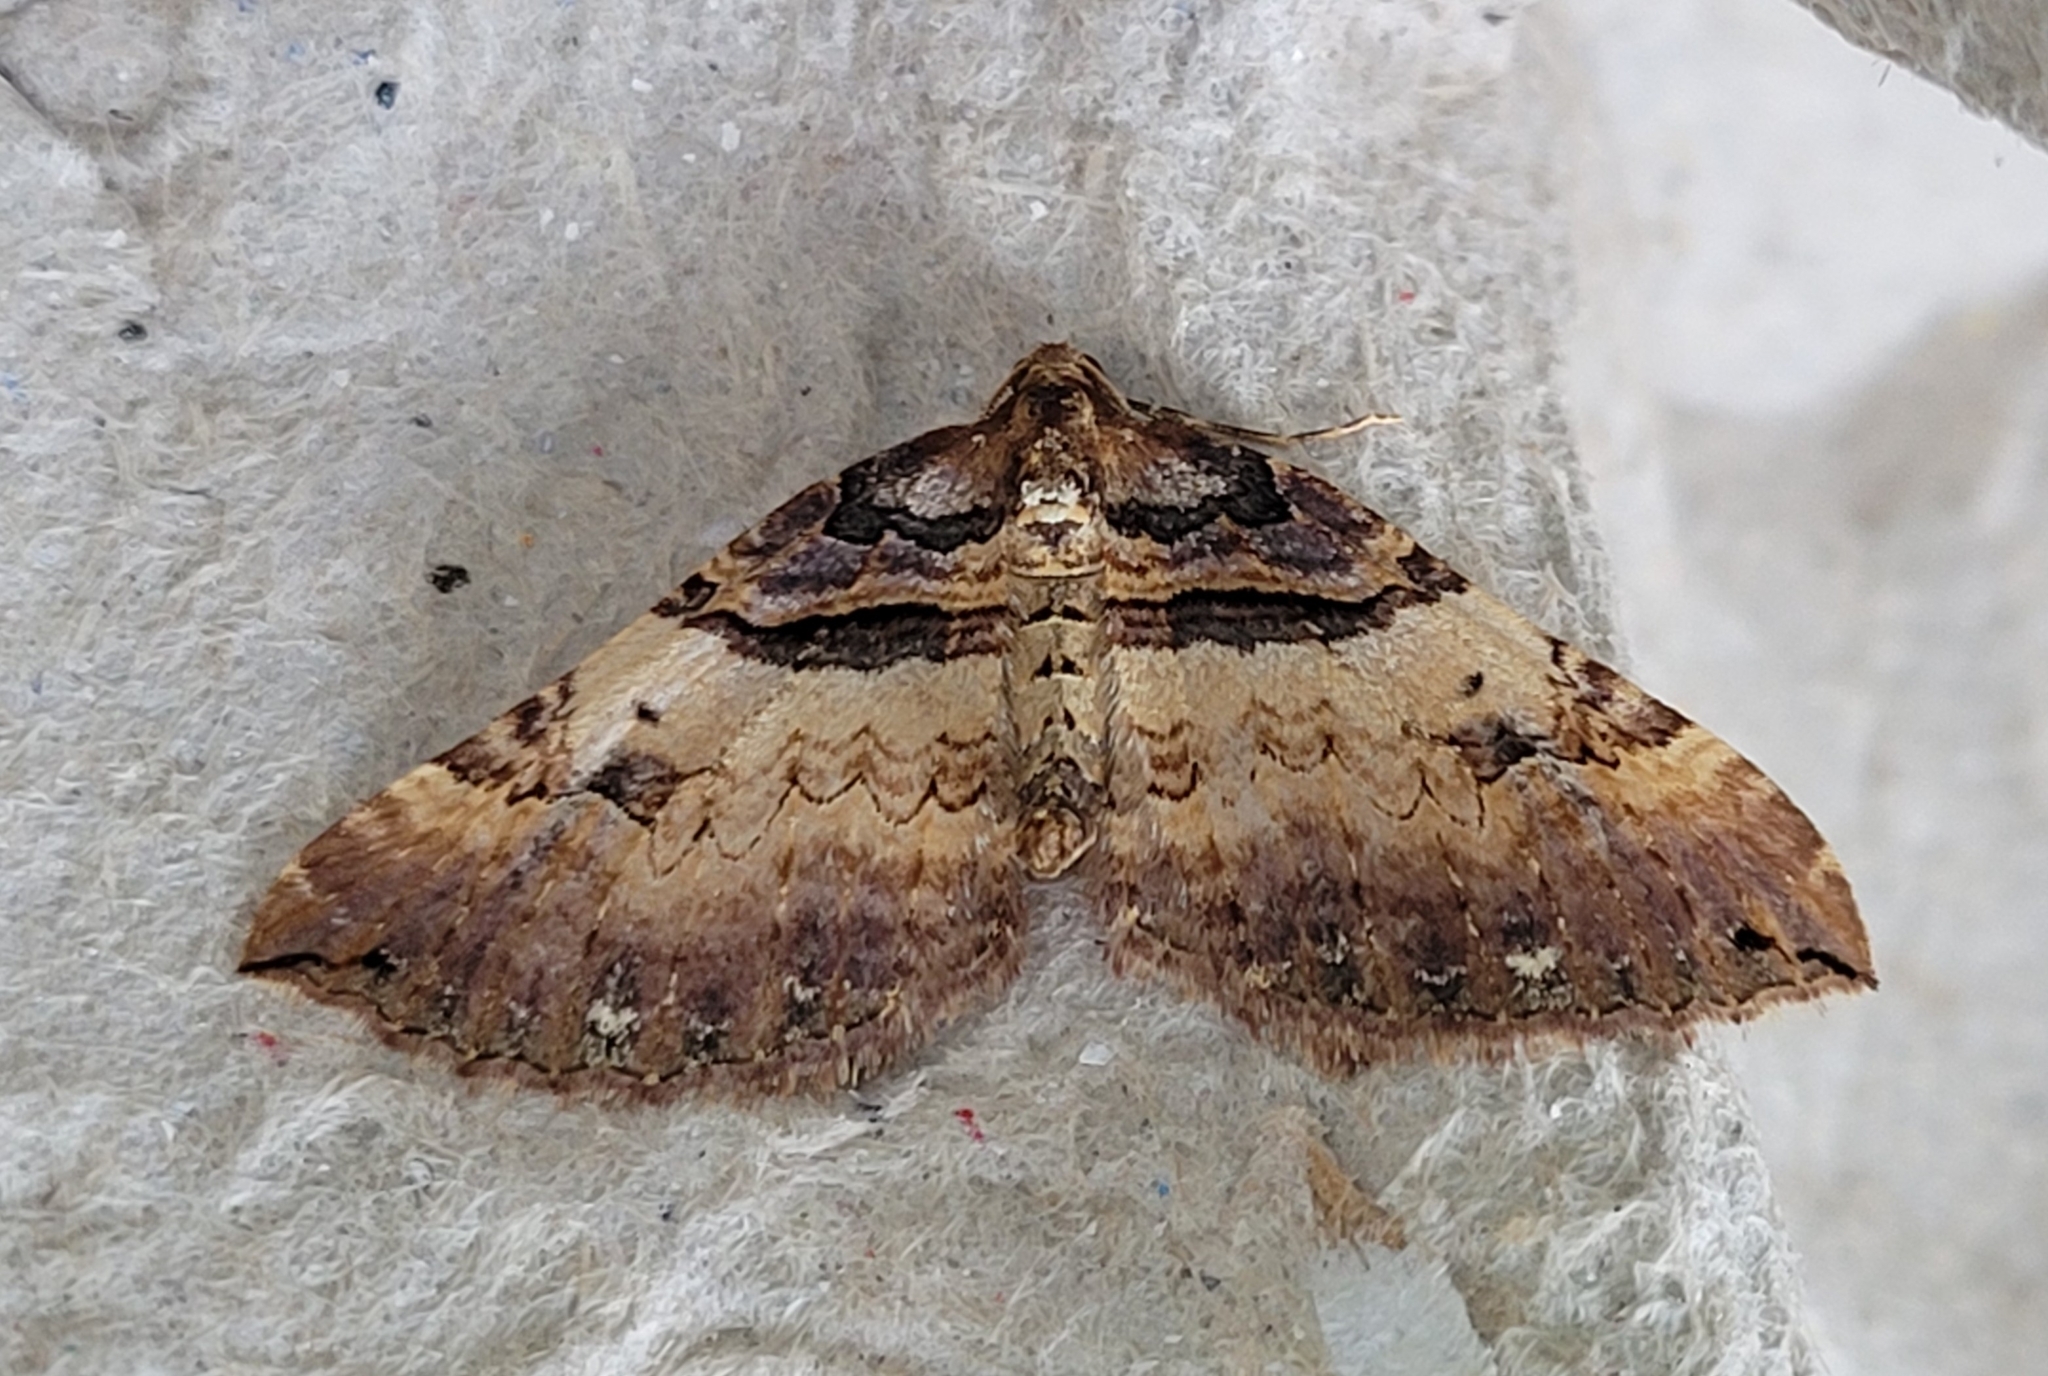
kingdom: Animalia
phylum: Arthropoda
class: Insecta
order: Lepidoptera
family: Geometridae
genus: Anticlea
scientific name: Anticlea badiata
